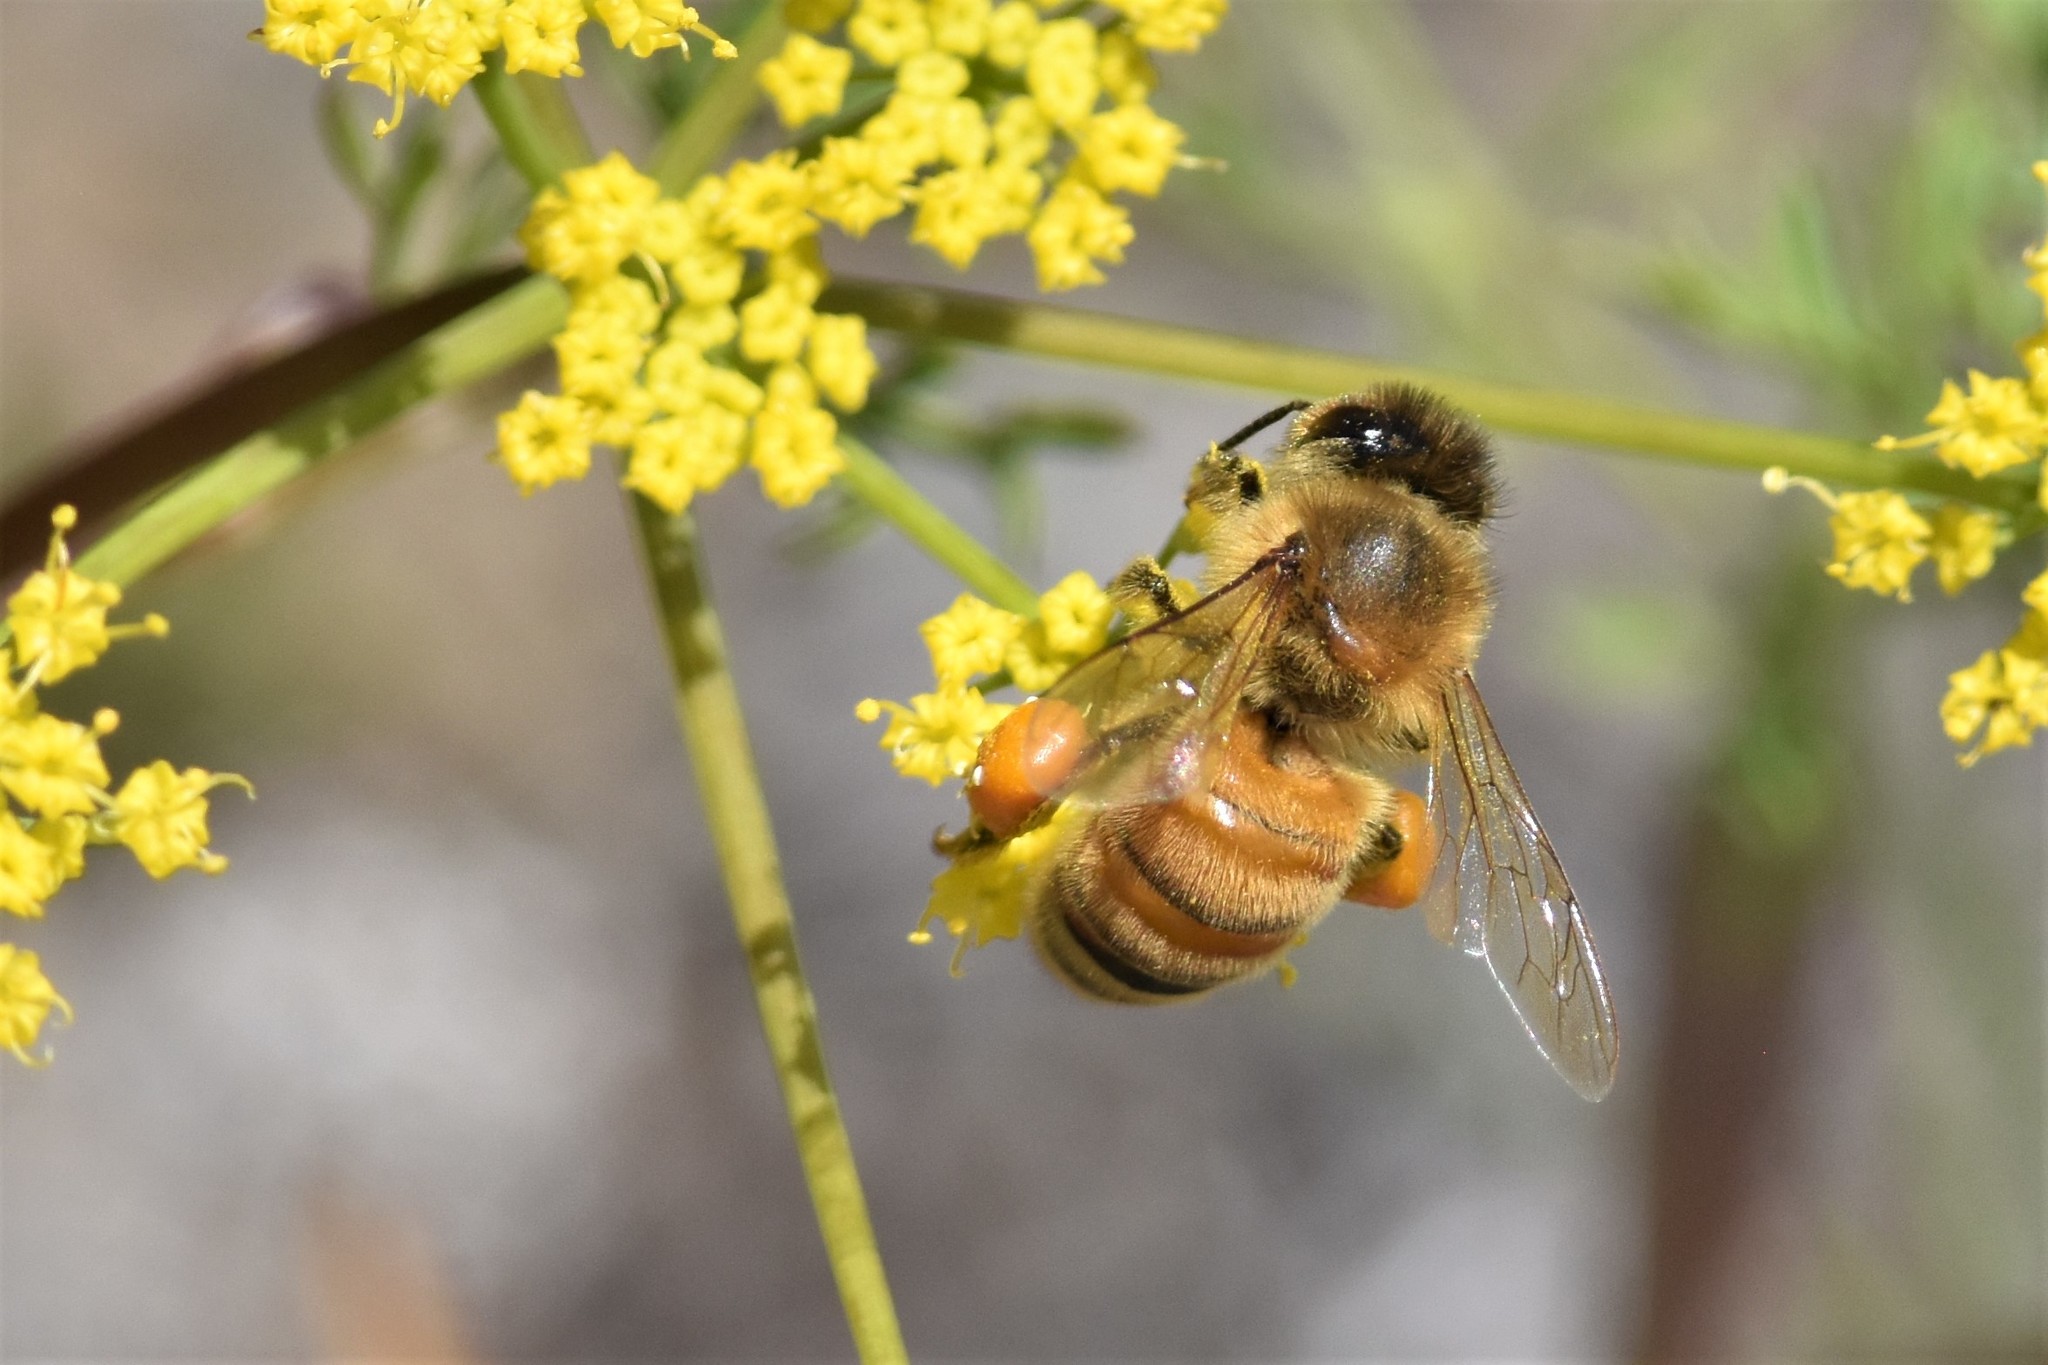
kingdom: Animalia
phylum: Arthropoda
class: Insecta
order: Hymenoptera
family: Apidae
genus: Apis
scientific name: Apis mellifera
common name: Honey bee
